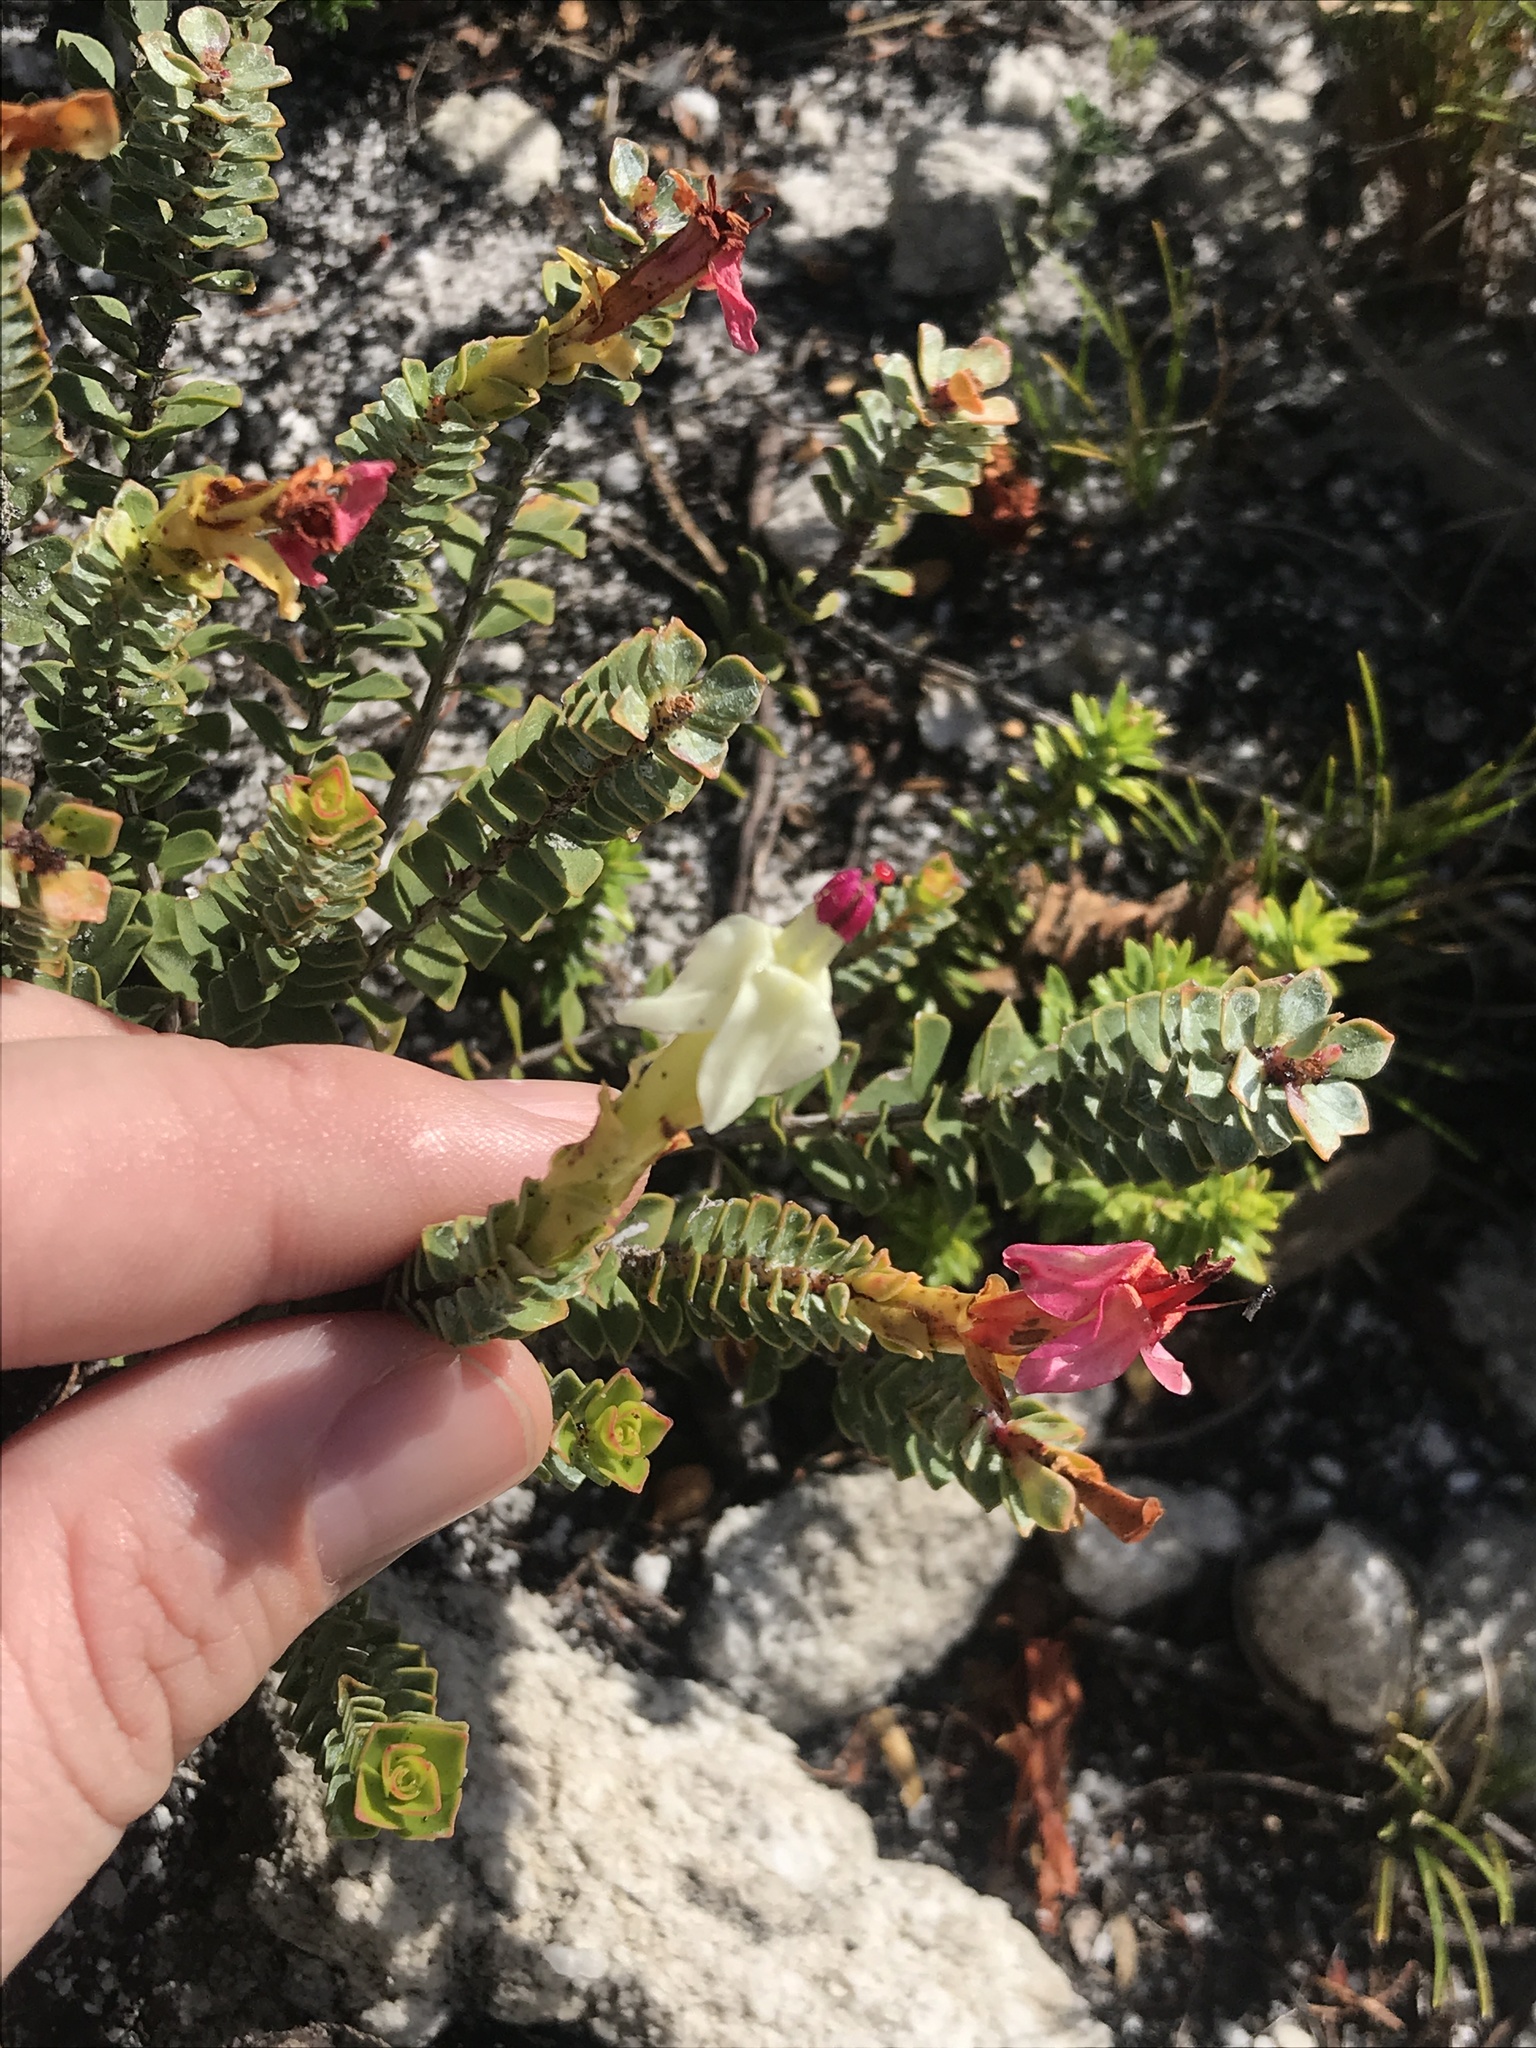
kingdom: Plantae
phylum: Tracheophyta
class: Magnoliopsida
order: Myrtales
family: Penaeaceae
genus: Saltera
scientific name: Saltera sarcocolla
